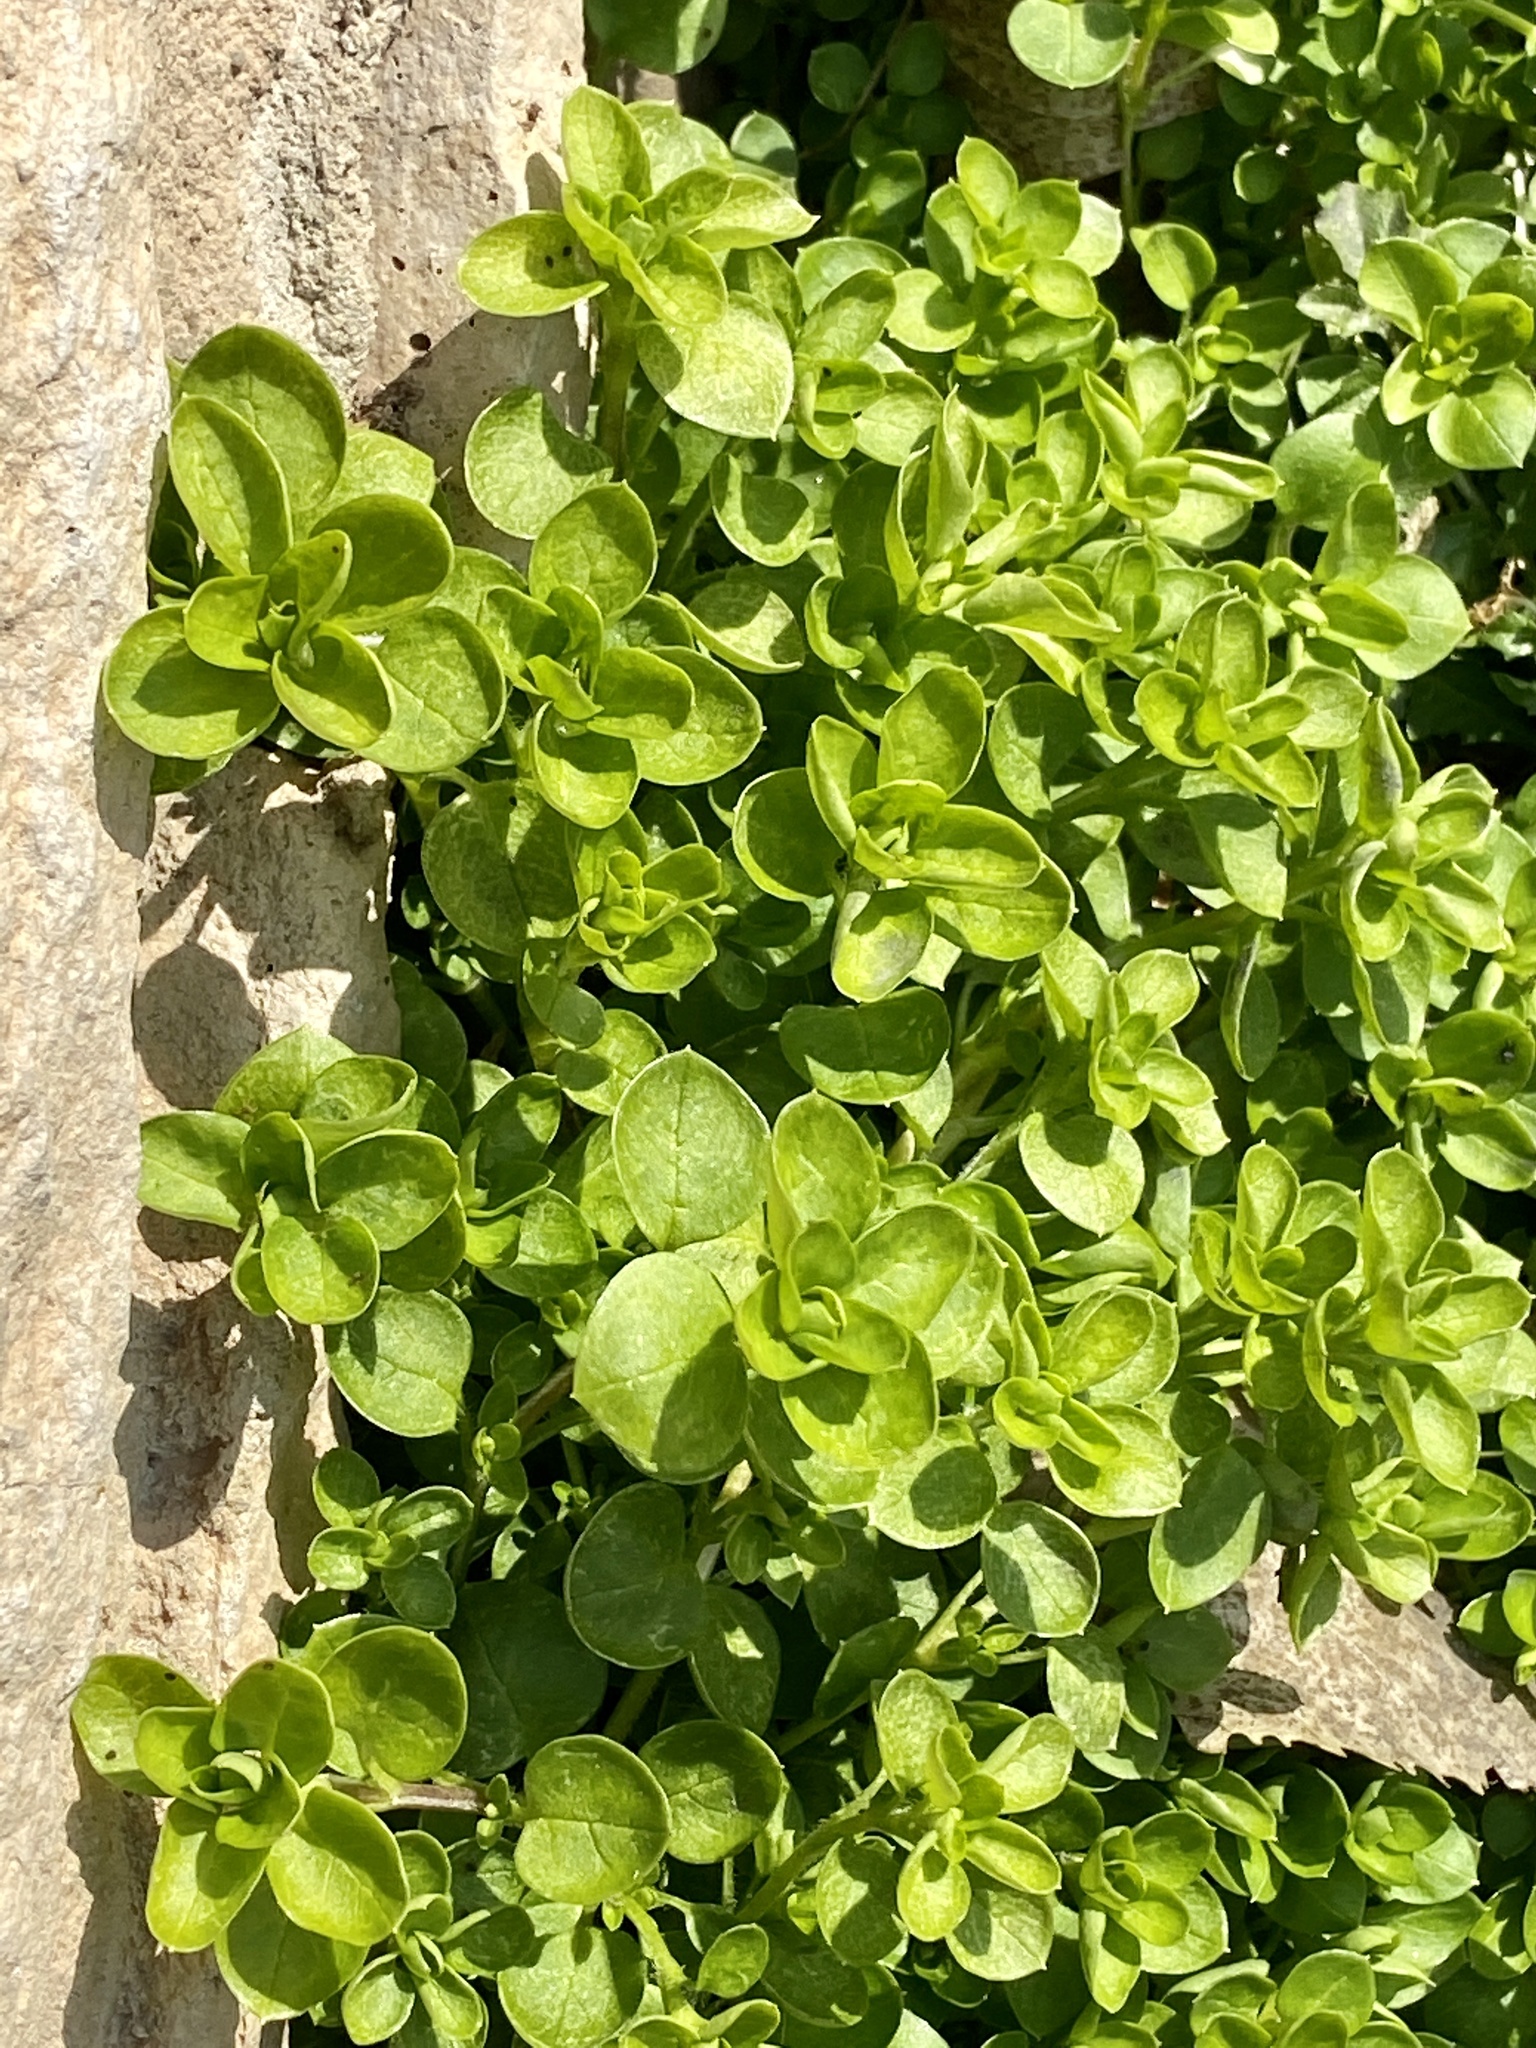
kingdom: Plantae
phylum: Tracheophyta
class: Magnoliopsida
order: Caryophyllales
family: Caryophyllaceae
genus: Stellaria
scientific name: Stellaria media
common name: Common chickweed
